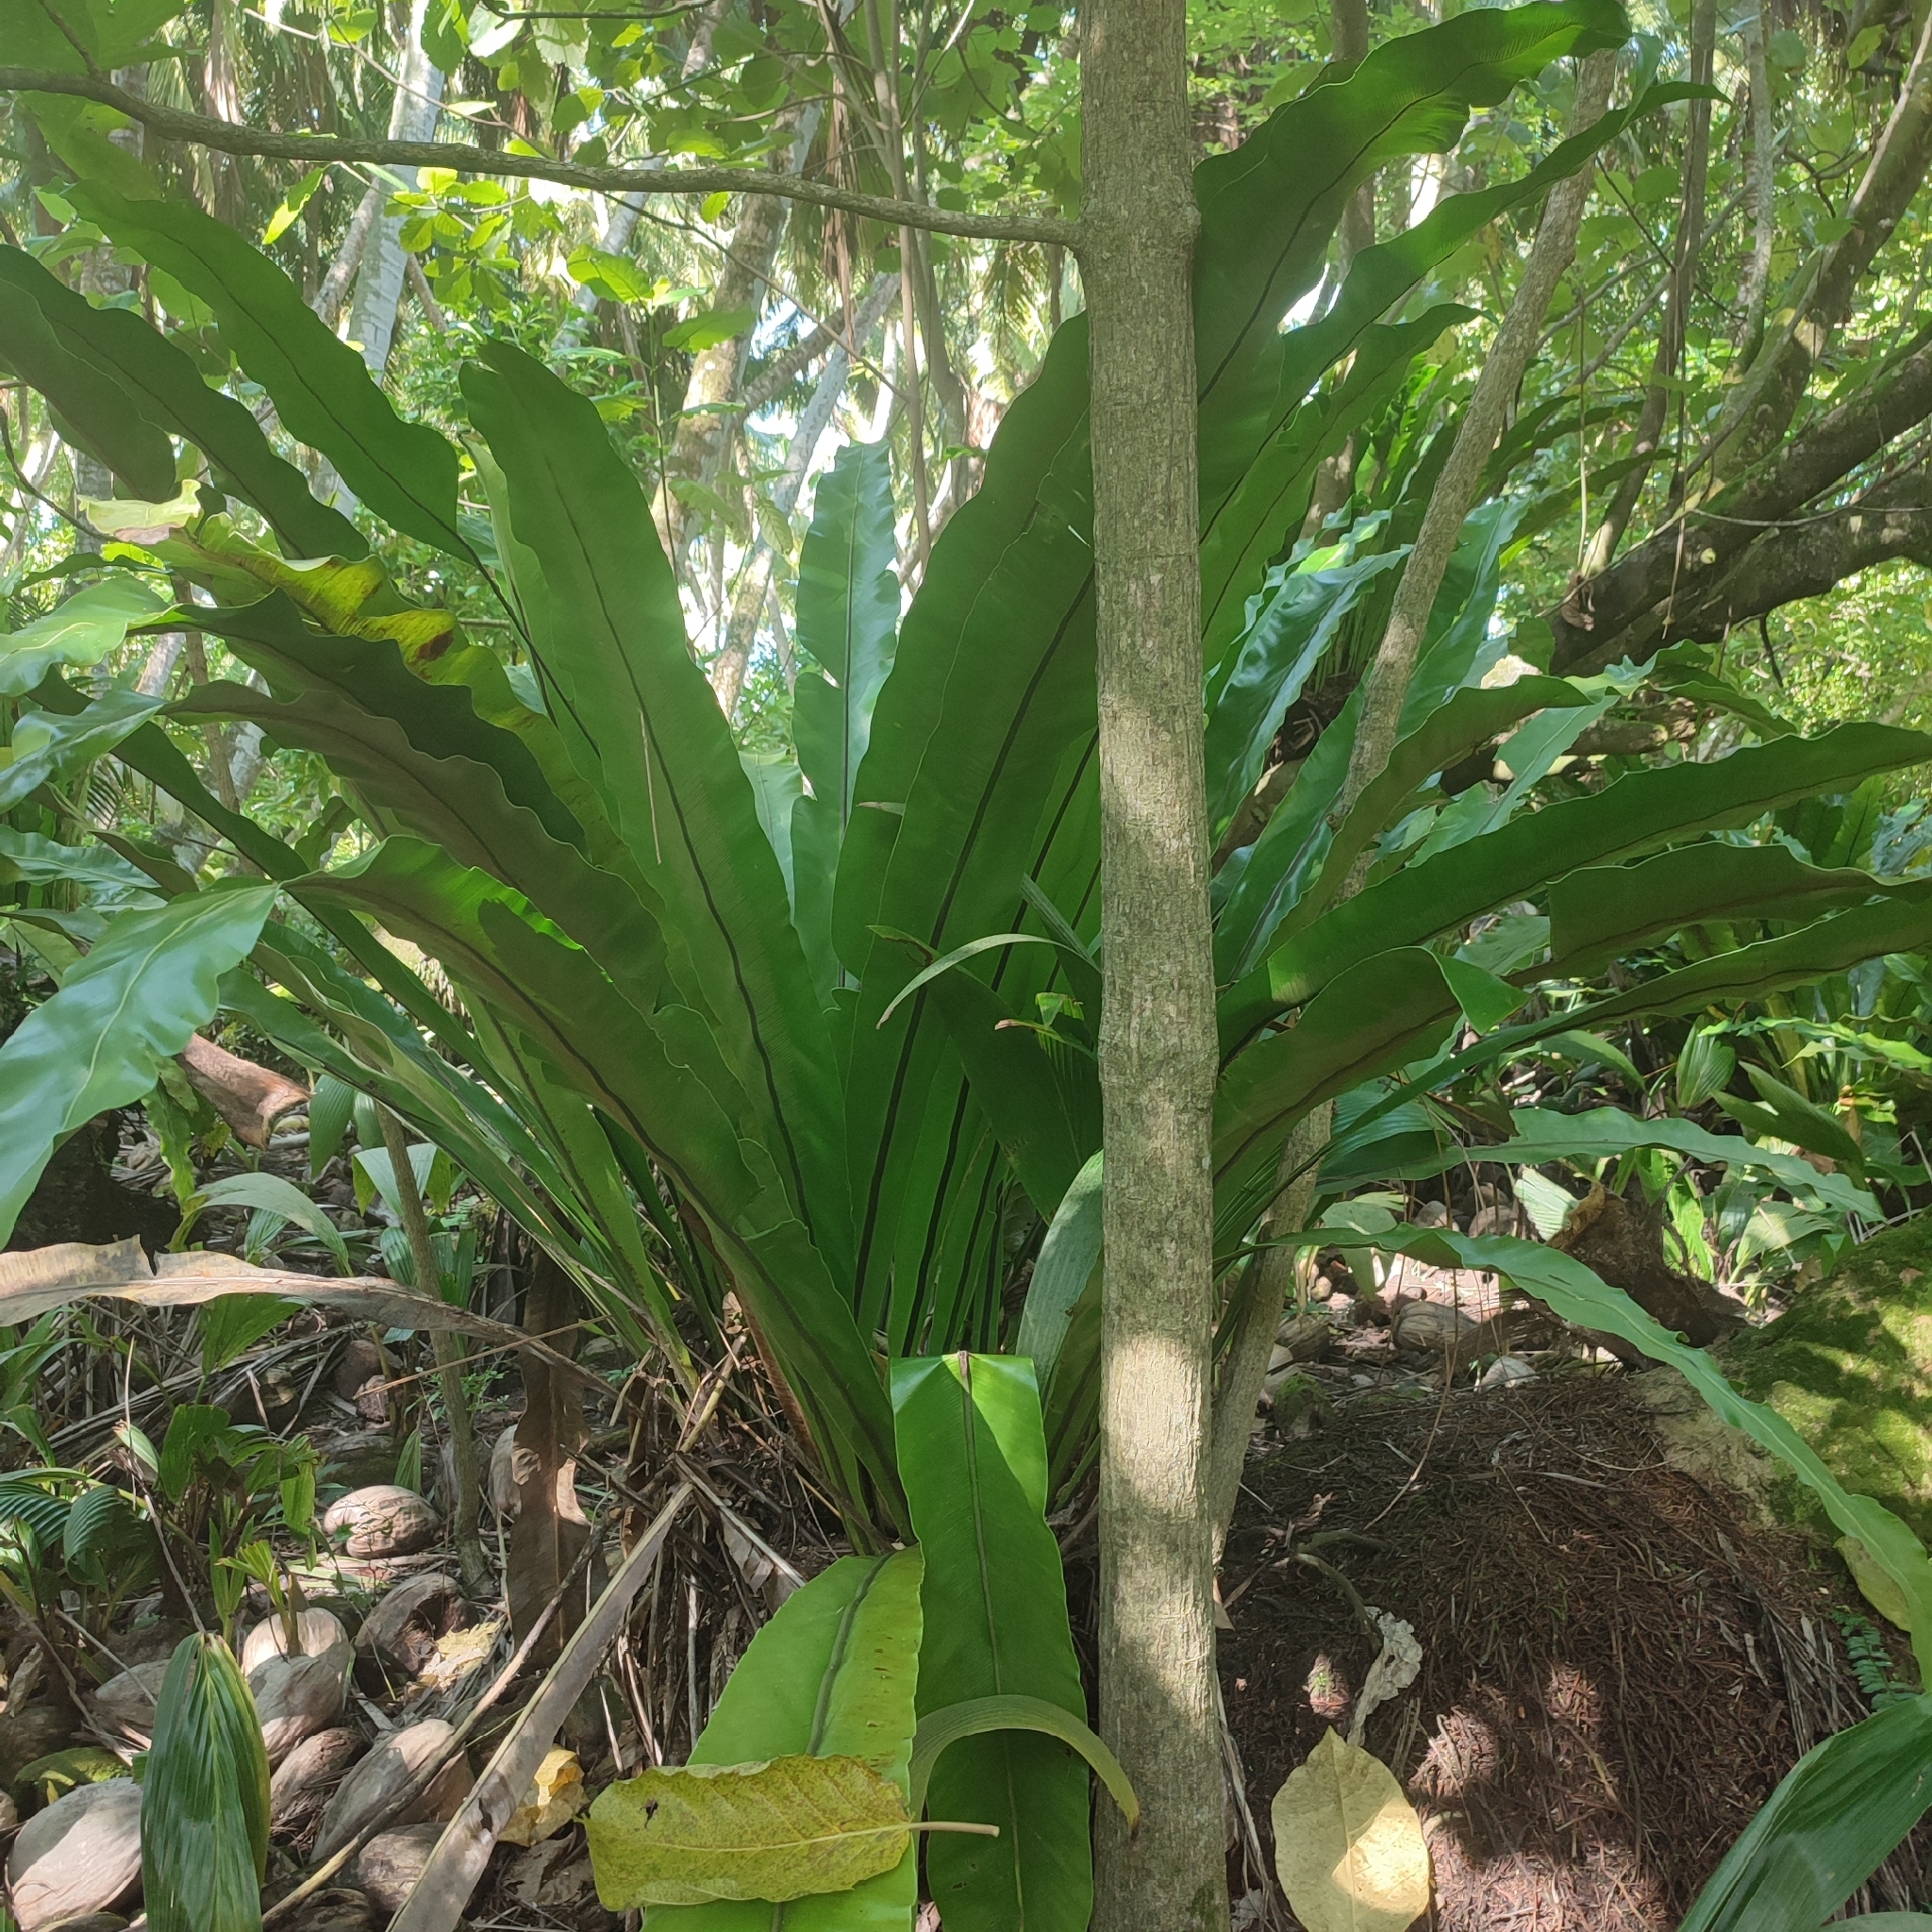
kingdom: Plantae
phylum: Tracheophyta
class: Polypodiopsida
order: Polypodiales
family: Aspleniaceae
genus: Asplenium
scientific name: Asplenium nidus
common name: Bird's-nest fern
